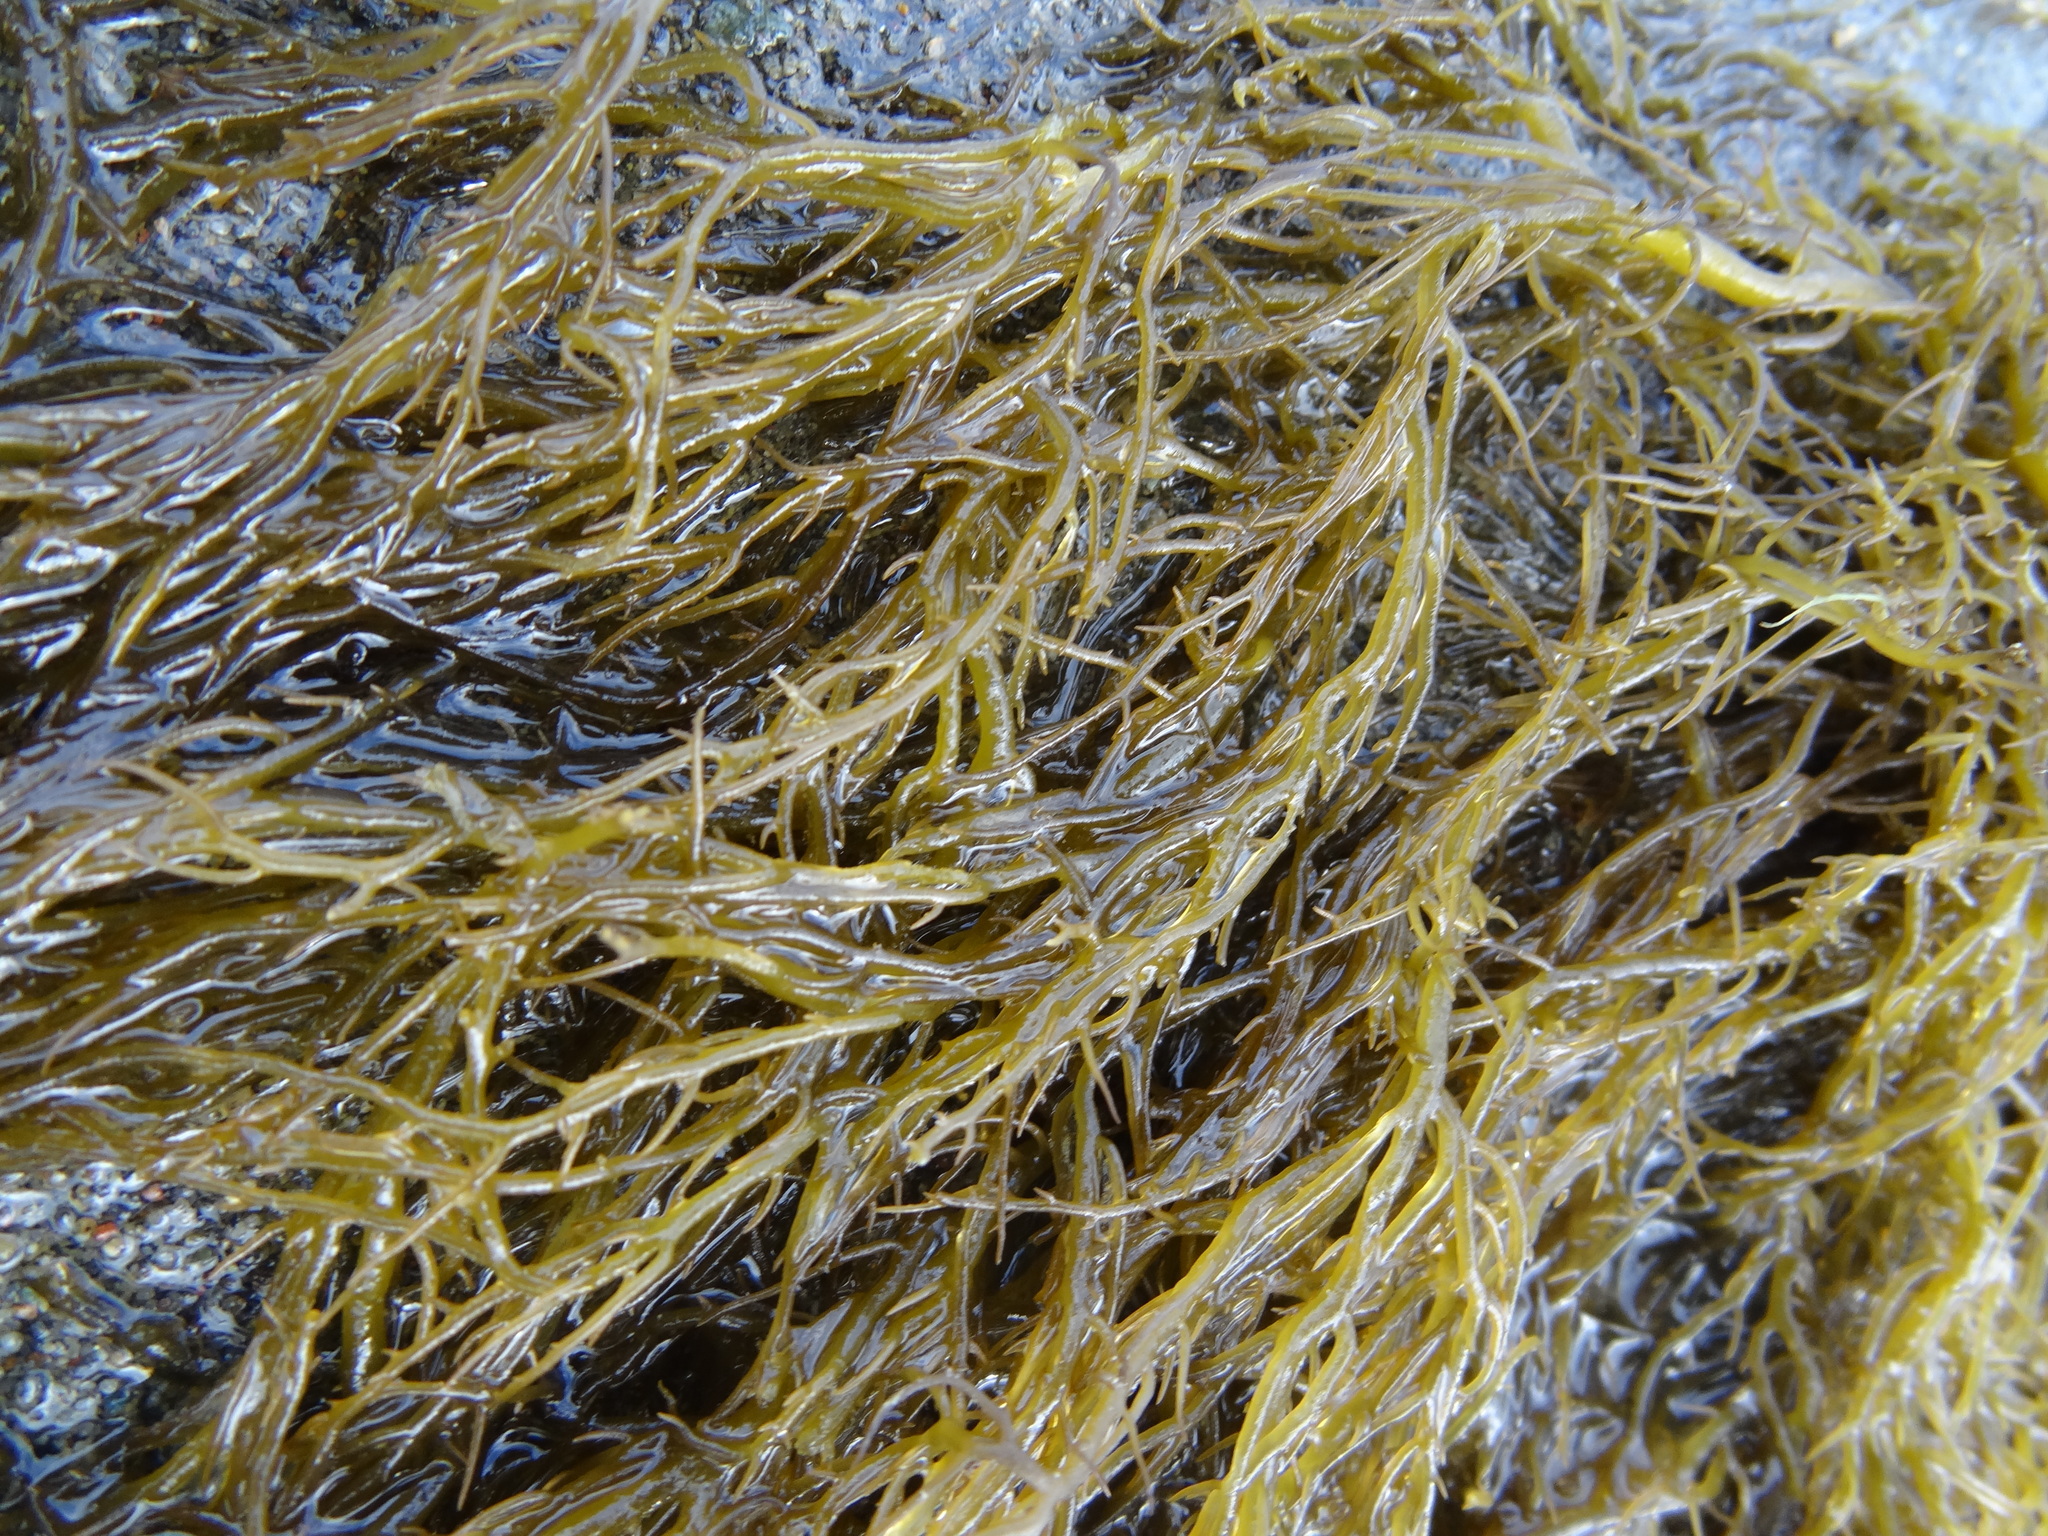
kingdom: Plantae
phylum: Rhodophyta
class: Florideophyceae
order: Gracilariales
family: Gracilariaceae
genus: Gracilaria
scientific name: Gracilaria chilensis
